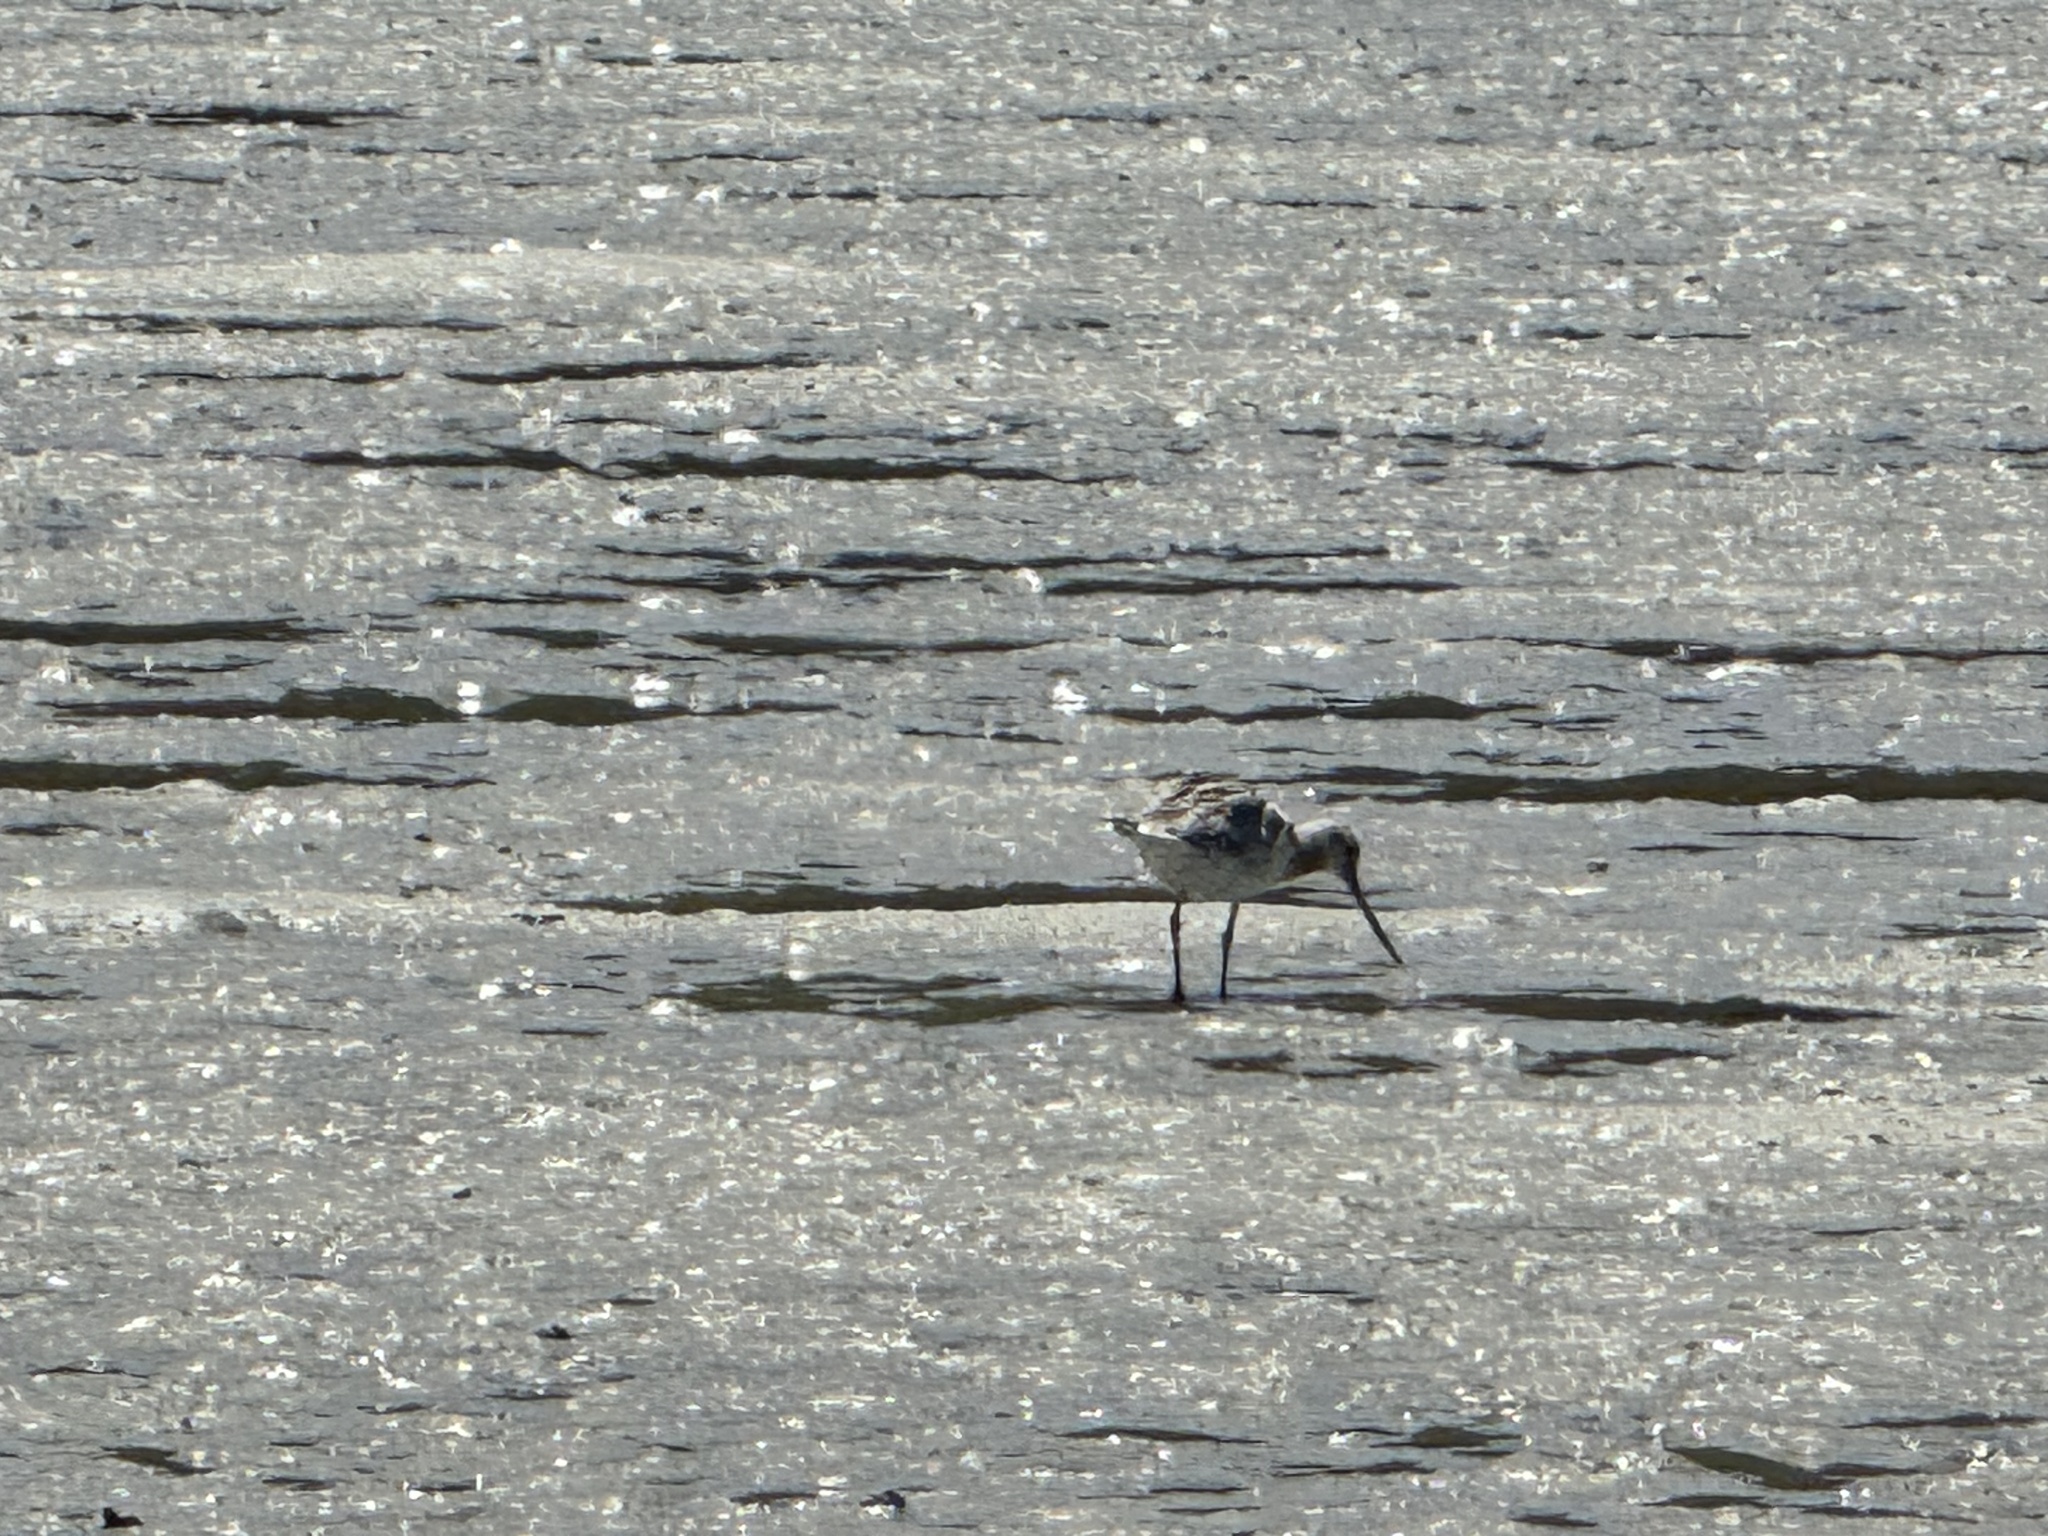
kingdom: Animalia
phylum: Chordata
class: Aves
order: Charadriiformes
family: Scolopacidae
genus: Limosa
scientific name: Limosa lapponica
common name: Bar-tailed godwit
